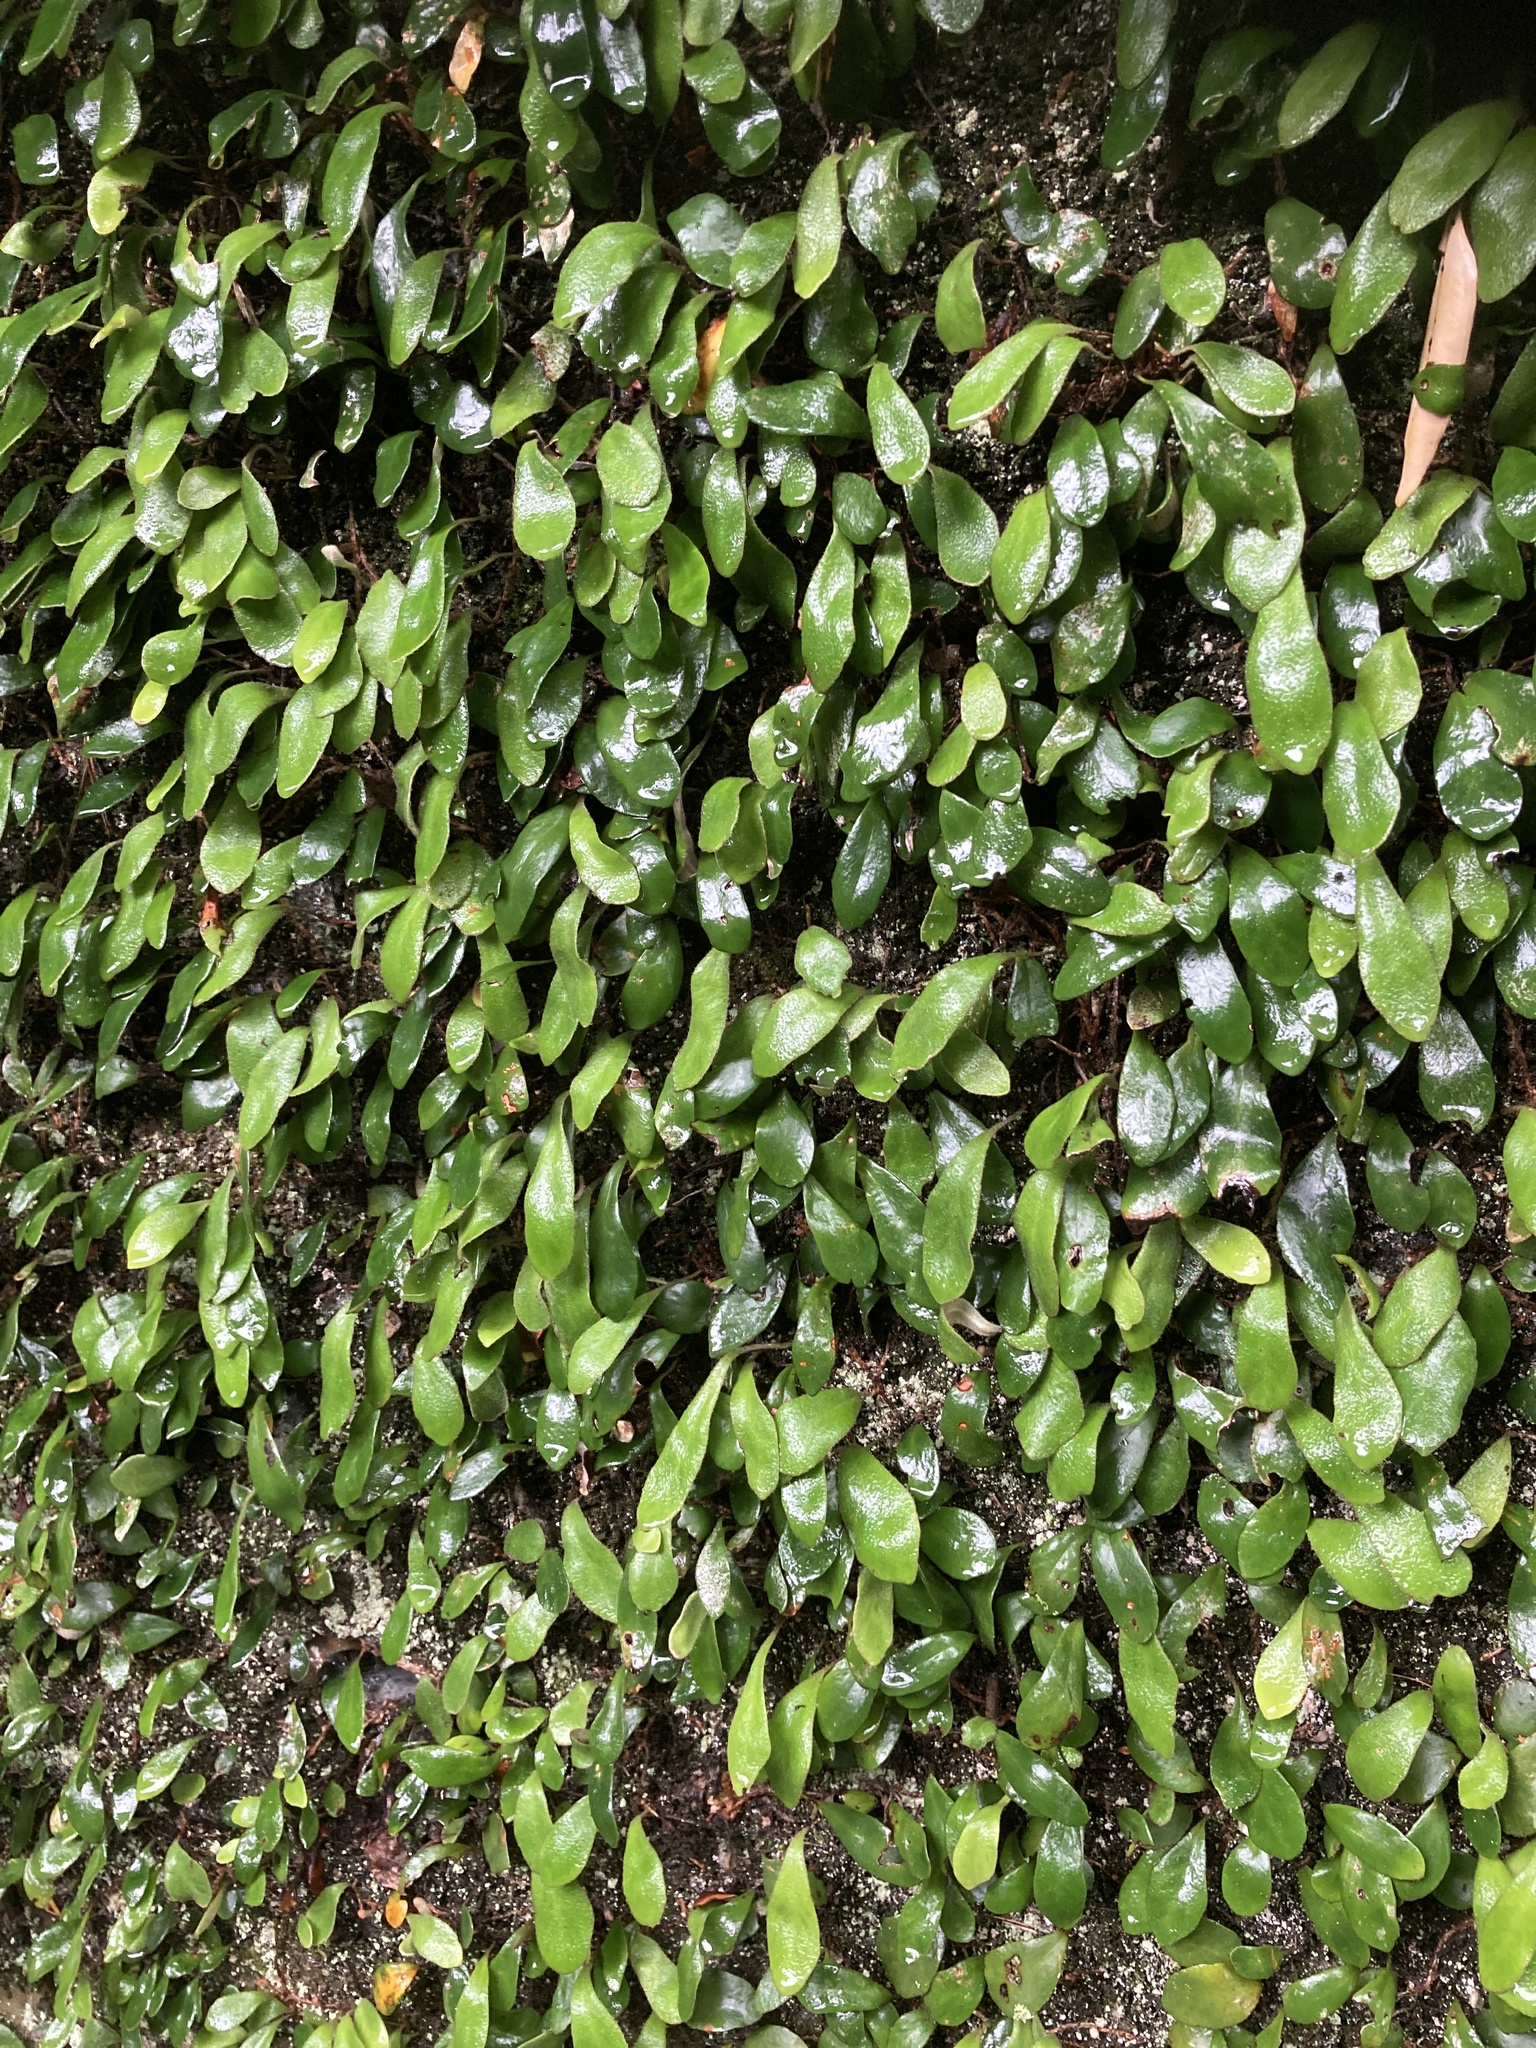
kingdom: Plantae
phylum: Tracheophyta
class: Polypodiopsida
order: Polypodiales
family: Polypodiaceae
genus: Pyrrosia
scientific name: Pyrrosia eleagnifolia
